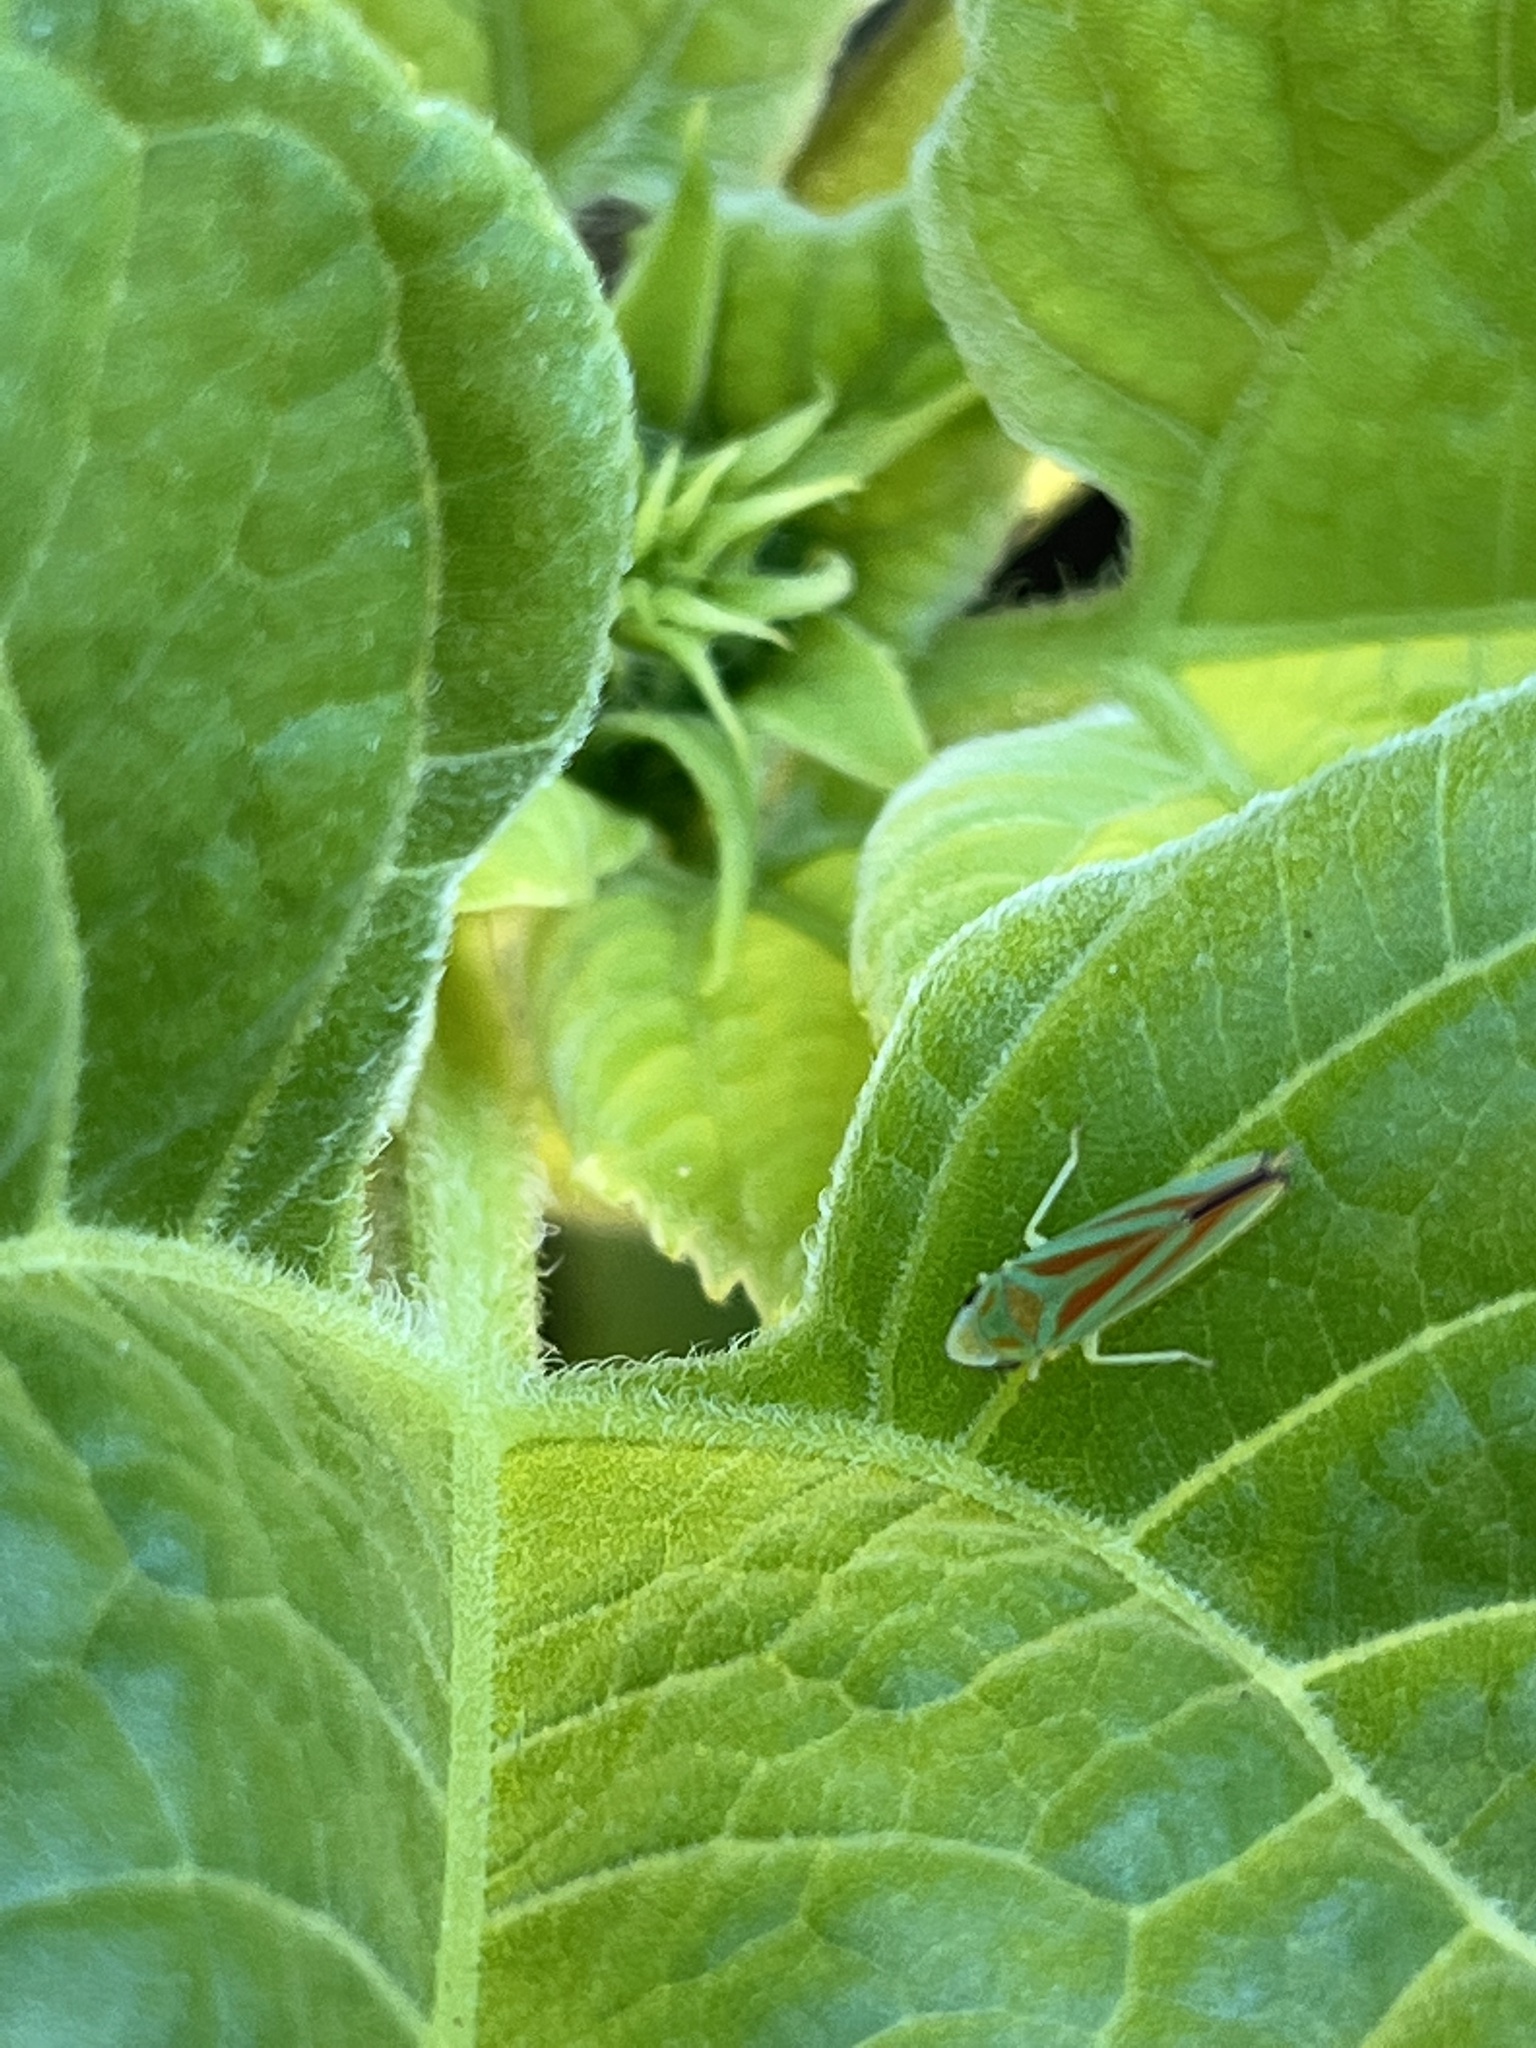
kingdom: Animalia
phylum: Arthropoda
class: Insecta
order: Hemiptera
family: Cicadellidae
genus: Graphocephala
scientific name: Graphocephala fennahi
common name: Rhododendron leafhopper
